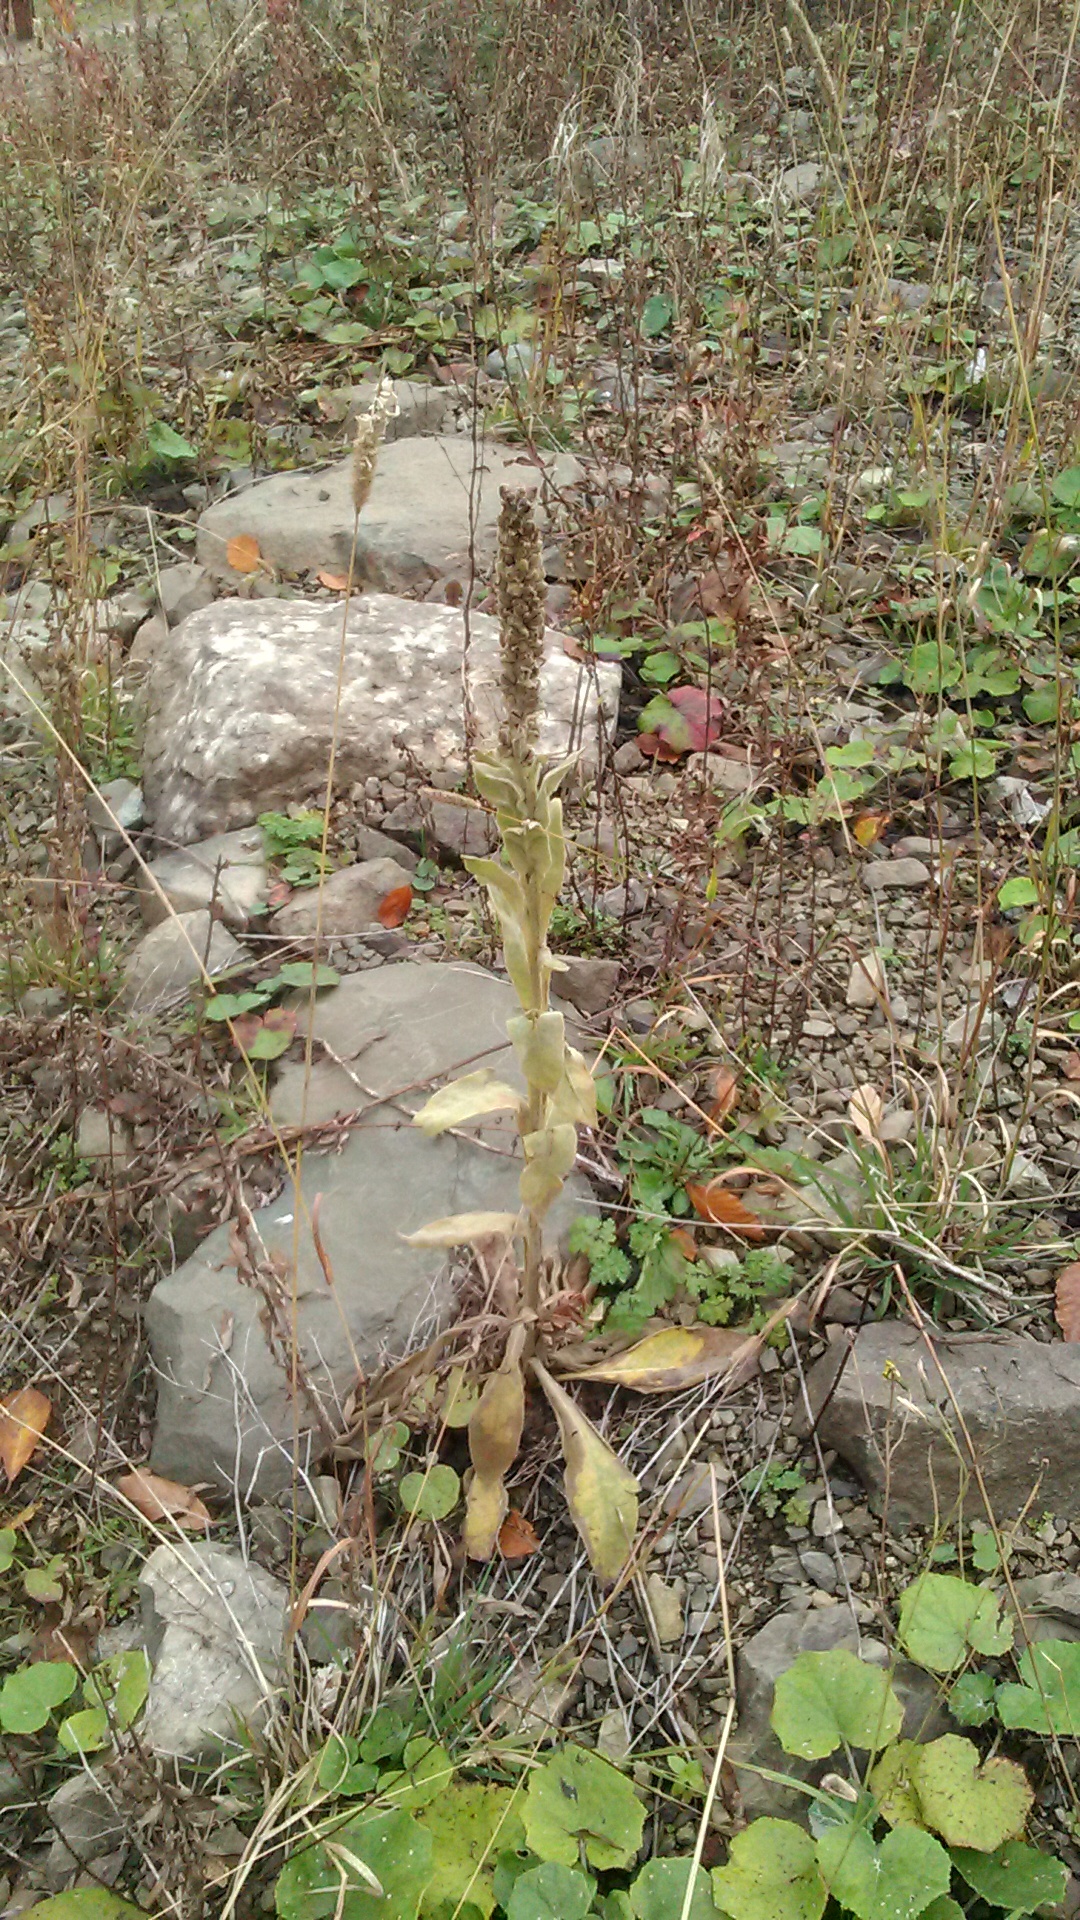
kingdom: Plantae
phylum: Tracheophyta
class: Magnoliopsida
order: Lamiales
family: Scrophulariaceae
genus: Verbascum
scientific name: Verbascum thapsus
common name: Common mullein
